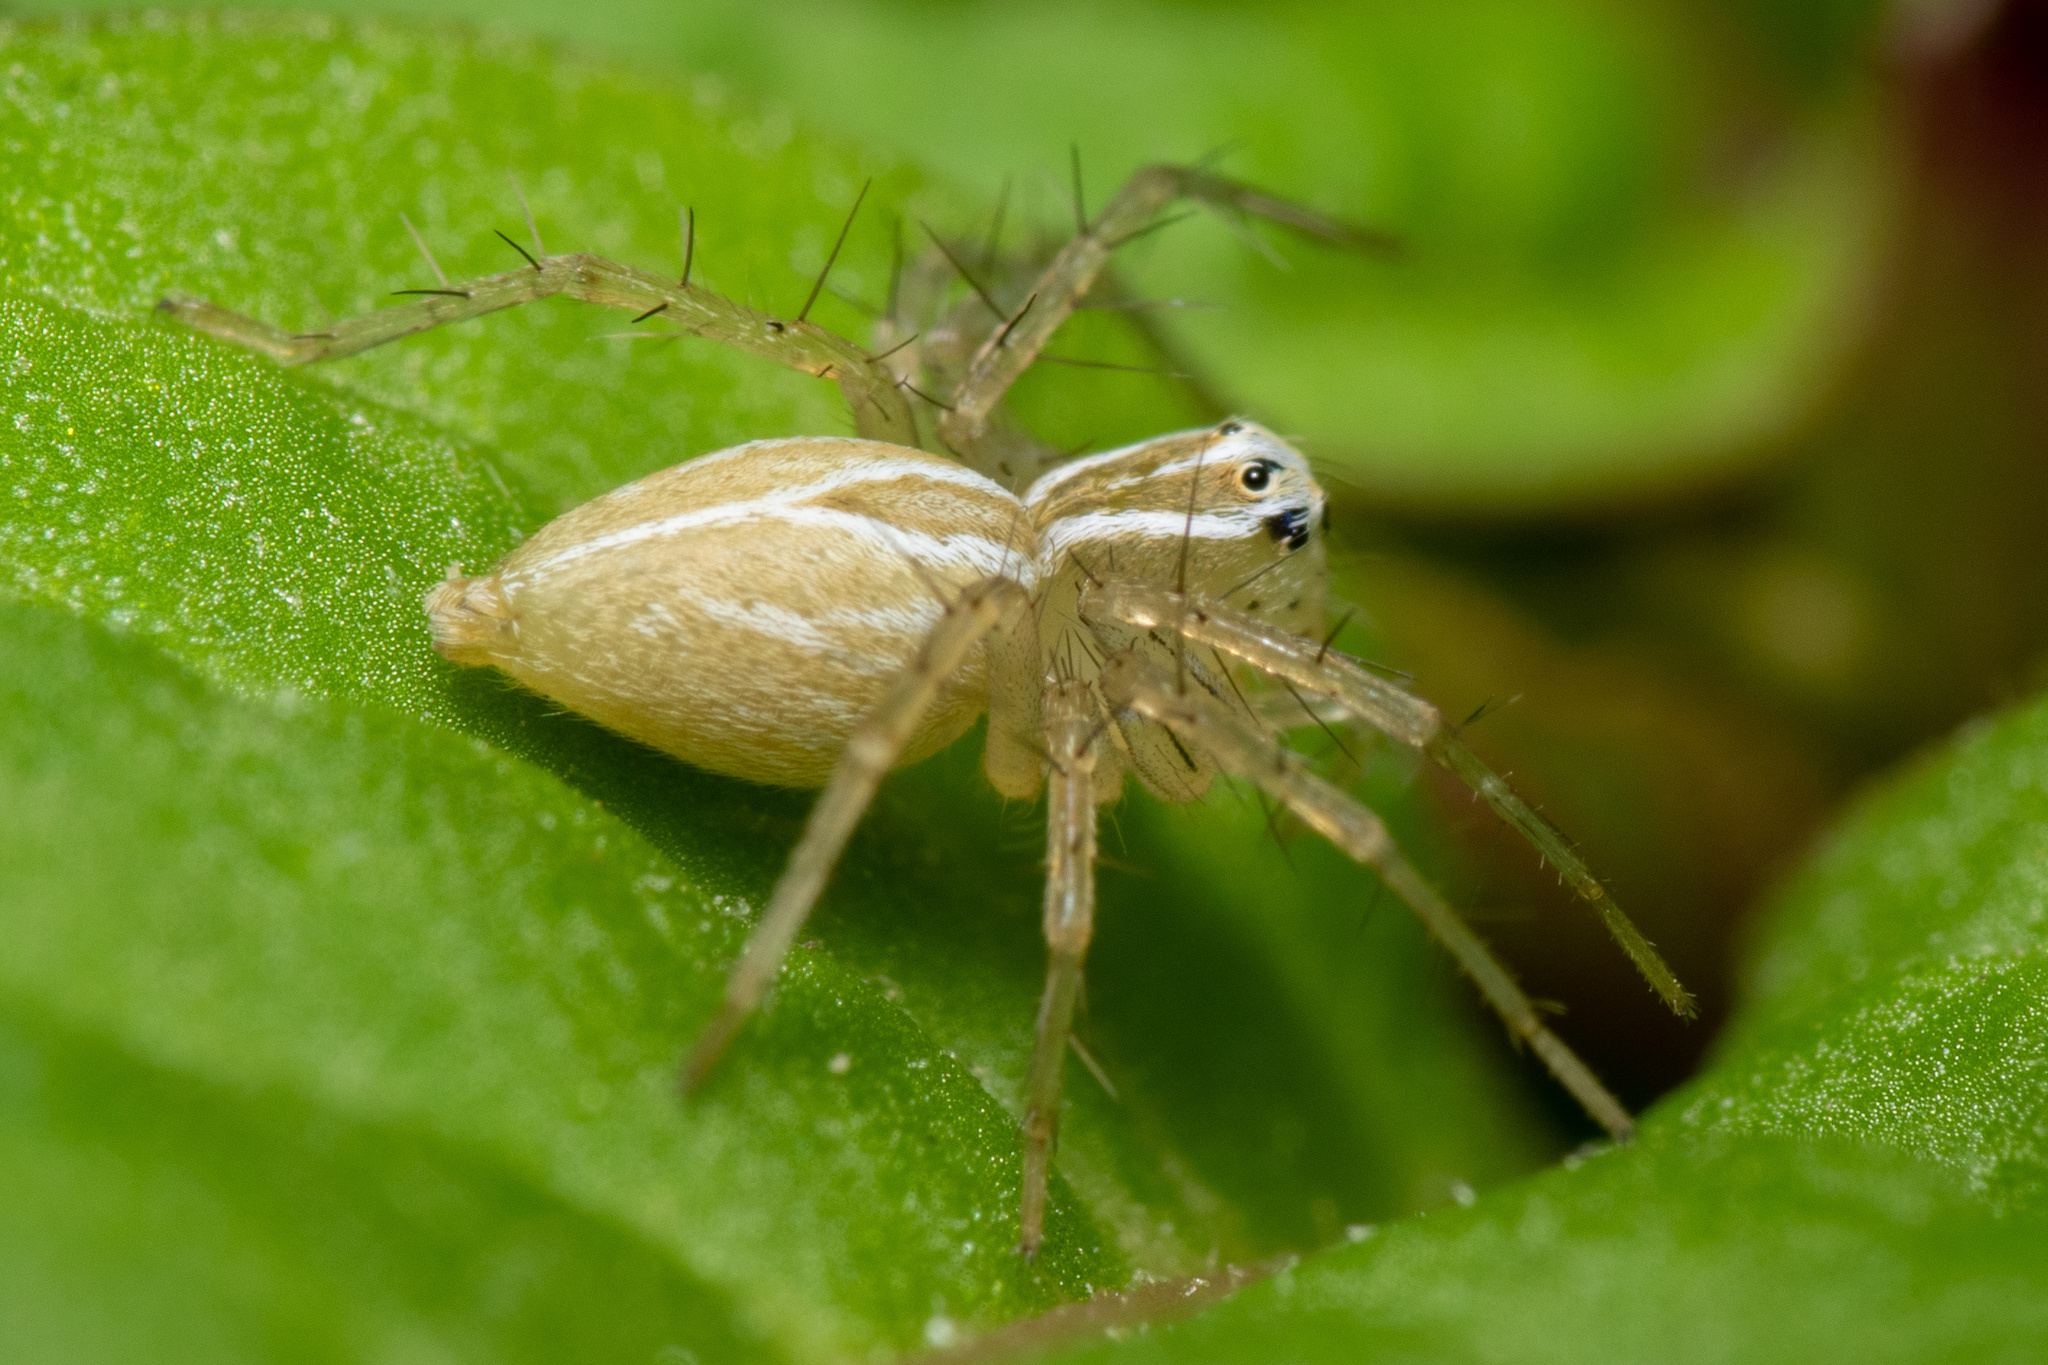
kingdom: Animalia
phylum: Arthropoda
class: Arachnida
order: Araneae
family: Oxyopidae
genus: Oxyopes
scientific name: Oxyopes salticus
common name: Lynx spiders
